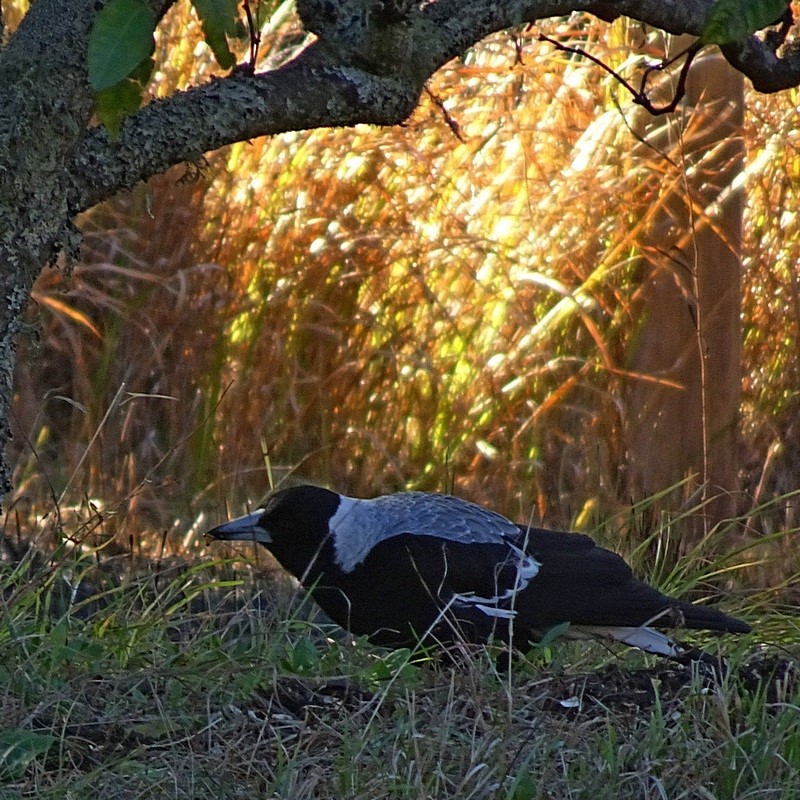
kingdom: Animalia
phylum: Chordata
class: Aves
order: Passeriformes
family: Cracticidae
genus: Gymnorhina
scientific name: Gymnorhina tibicen
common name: Australian magpie
